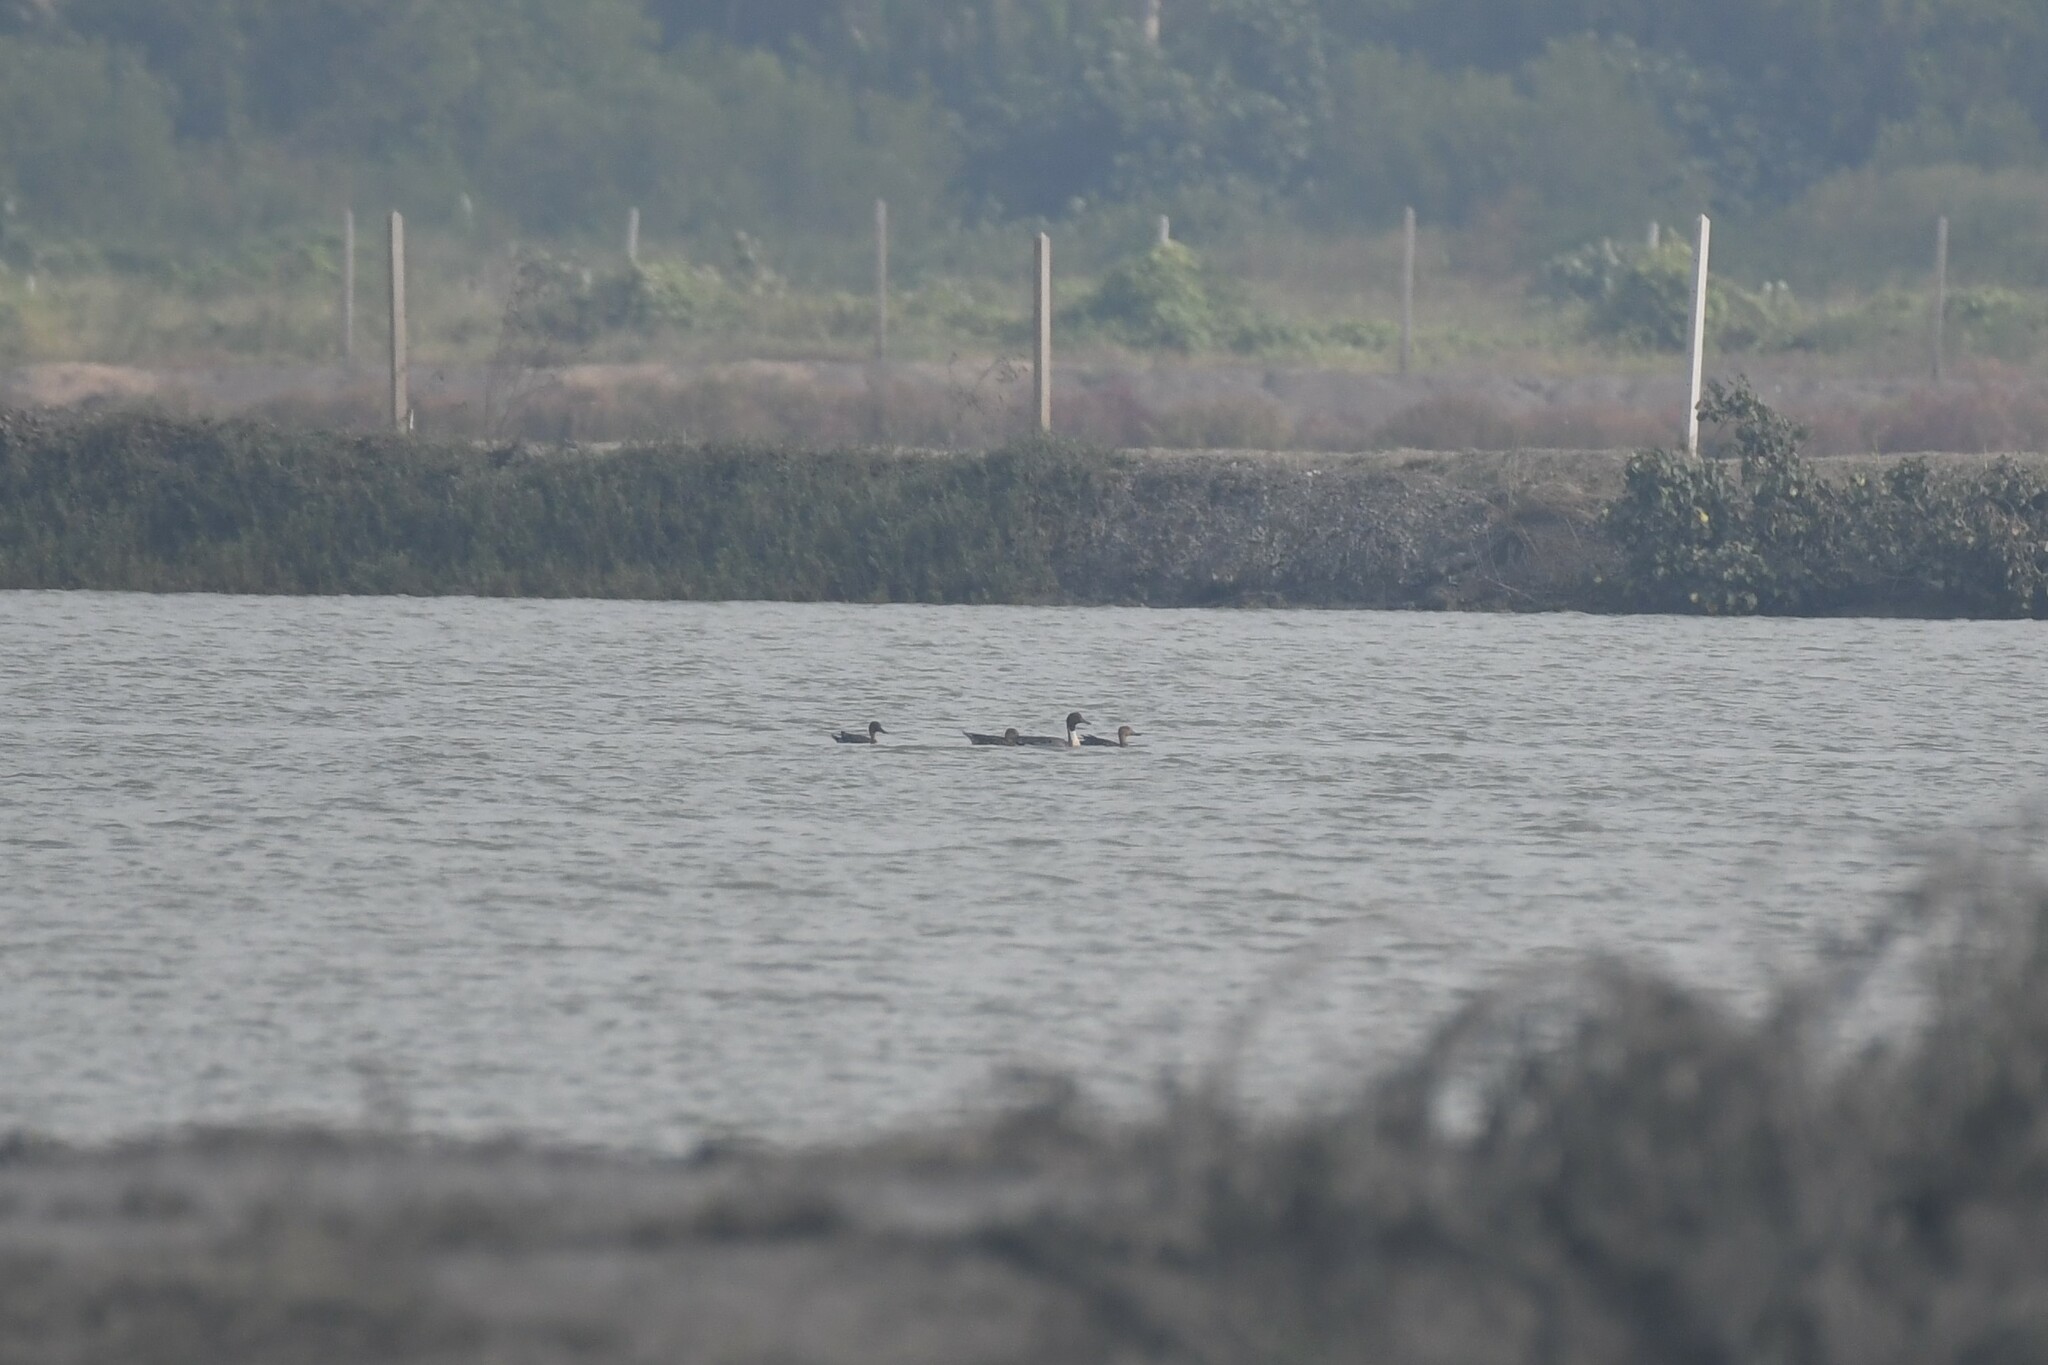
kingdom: Animalia
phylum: Chordata
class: Aves
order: Anseriformes
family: Anatidae
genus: Anas
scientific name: Anas acuta
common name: Northern pintail
